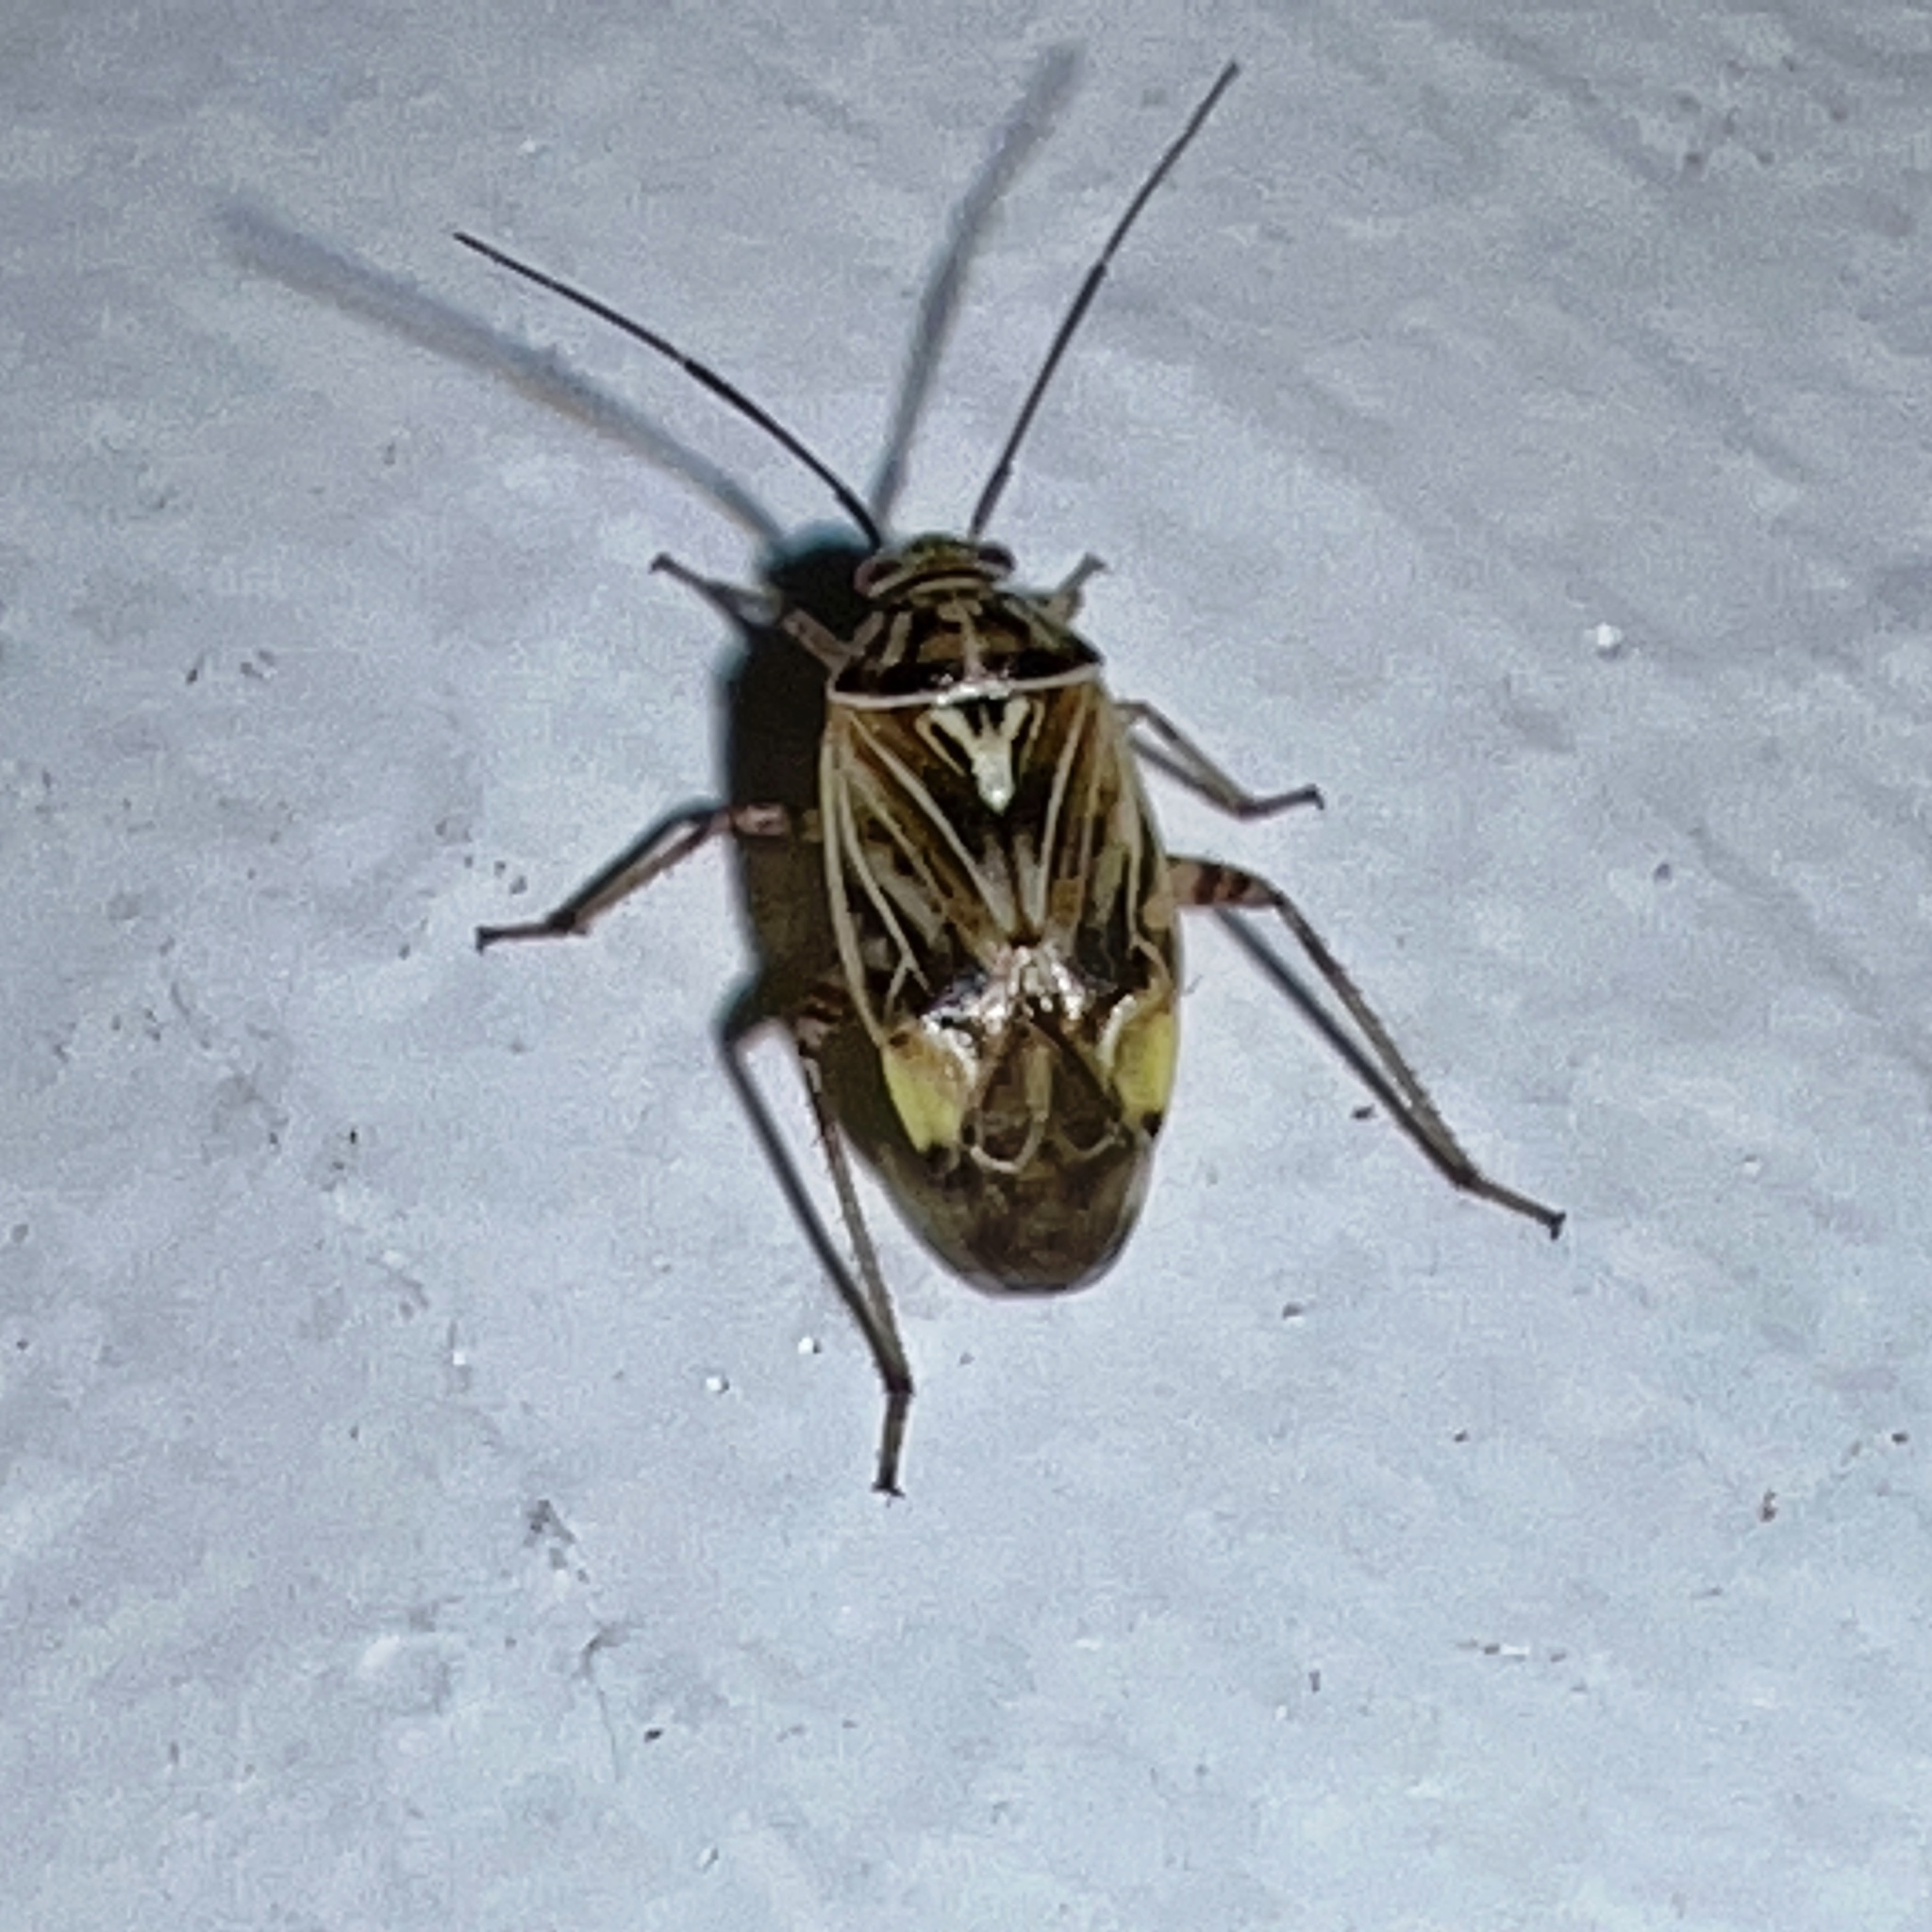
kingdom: Animalia
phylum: Arthropoda
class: Insecta
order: Hemiptera
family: Miridae
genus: Lygus
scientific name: Lygus lineolaris
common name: North american tarnished plant bug
